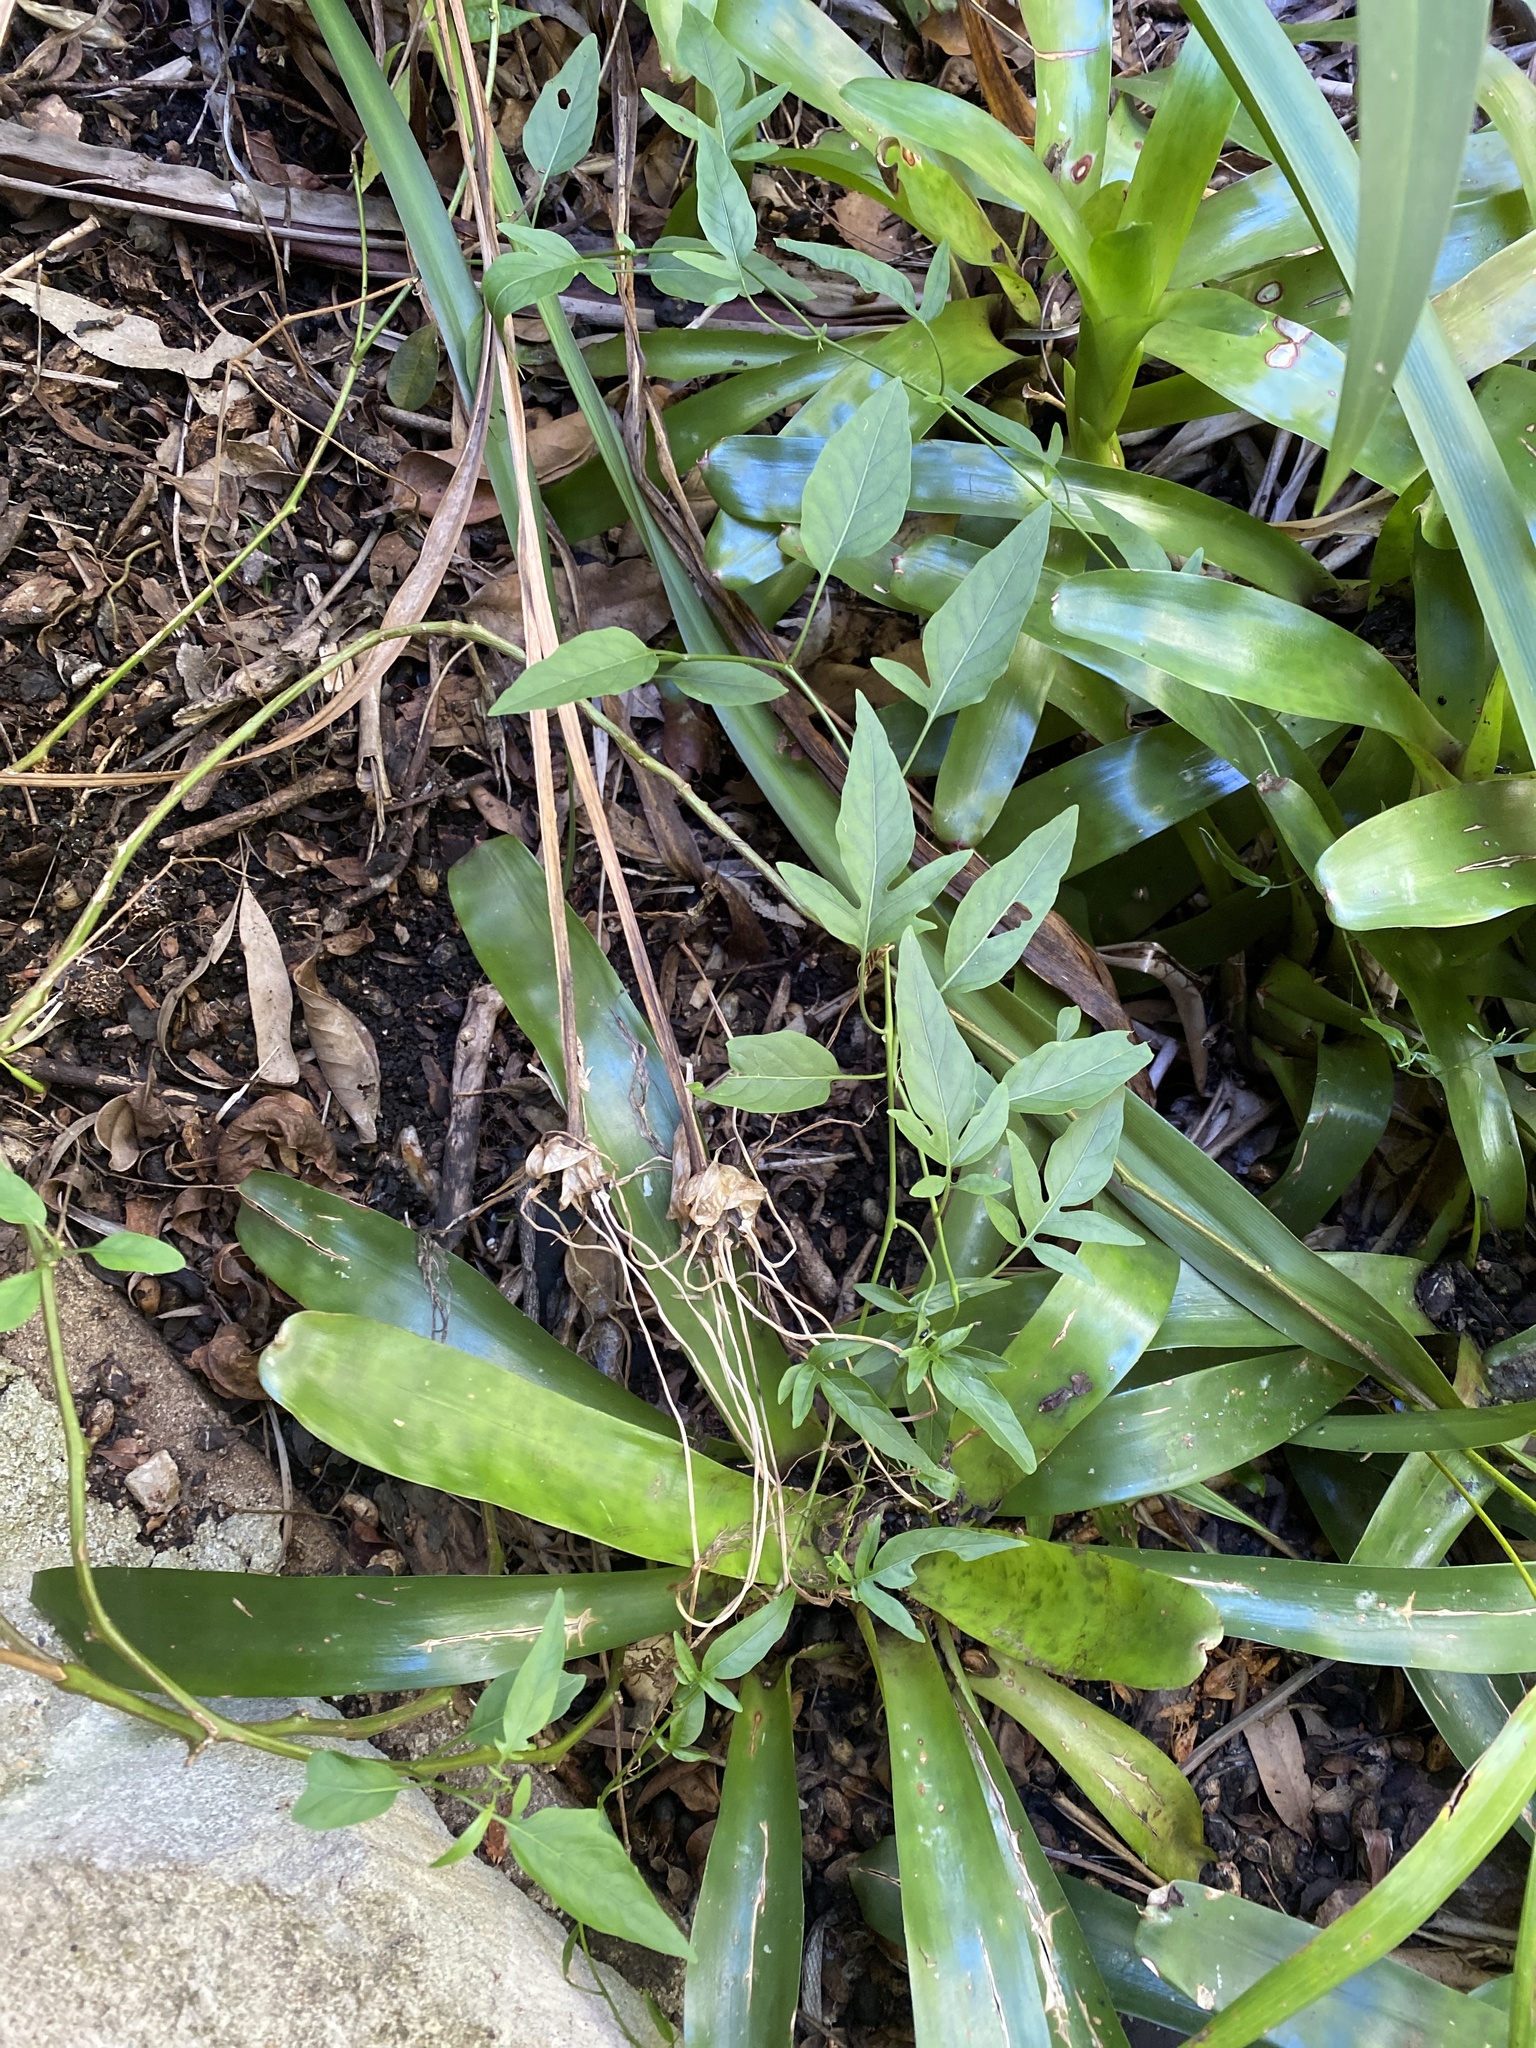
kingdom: Plantae
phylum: Tracheophyta
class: Magnoliopsida
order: Solanales
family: Solanaceae
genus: Solanum
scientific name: Solanum seaforthianum
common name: Brazilian nightshade
